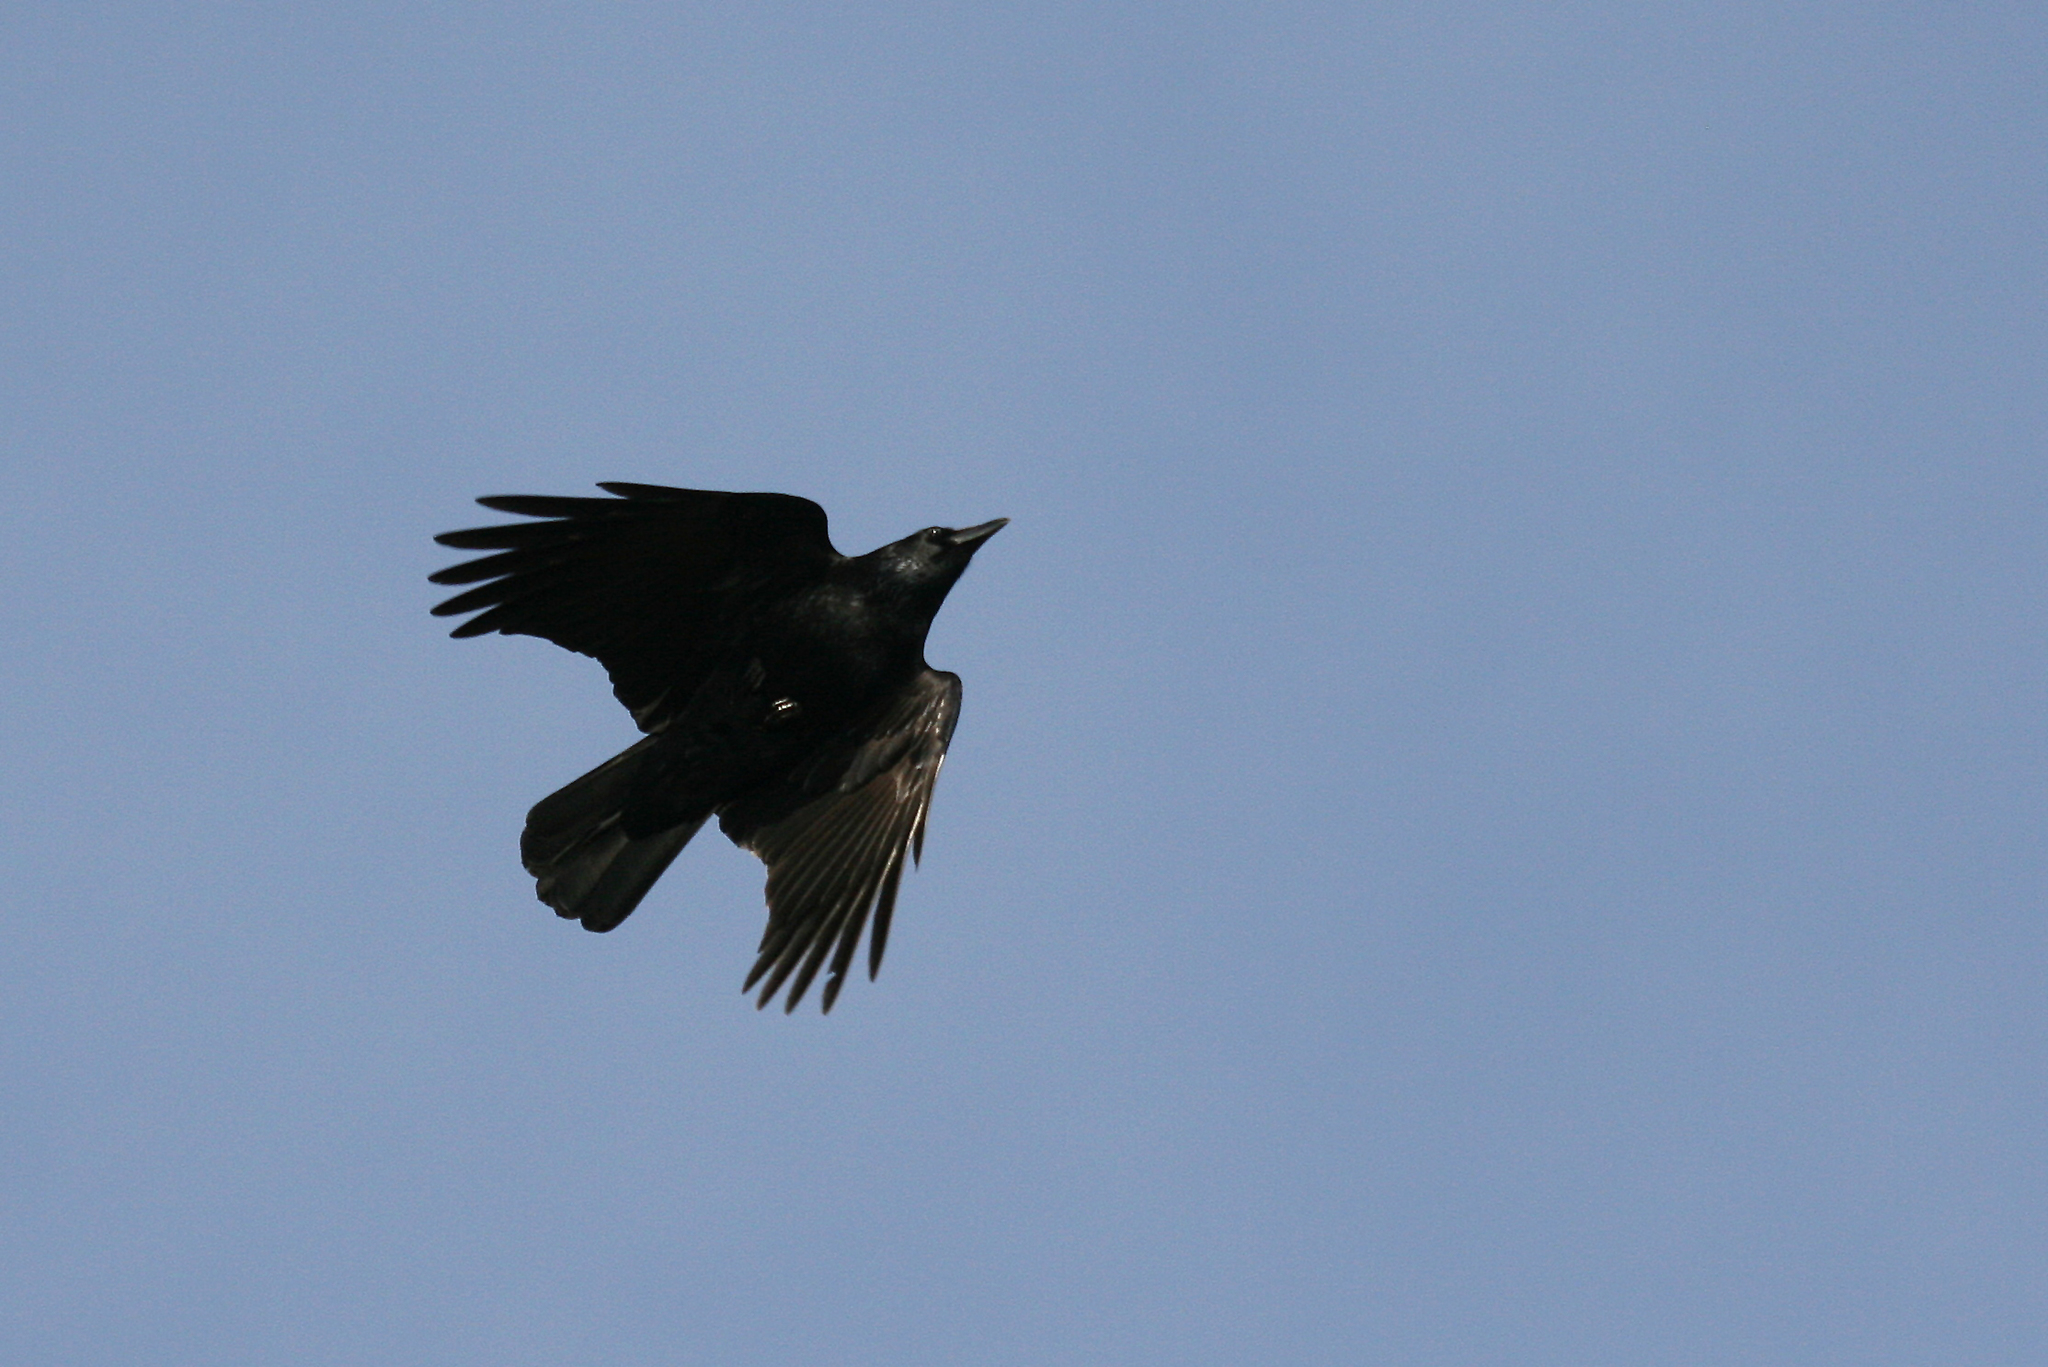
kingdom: Animalia
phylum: Chordata
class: Aves
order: Passeriformes
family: Corvidae
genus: Corvus
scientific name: Corvus corone
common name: Carrion crow
